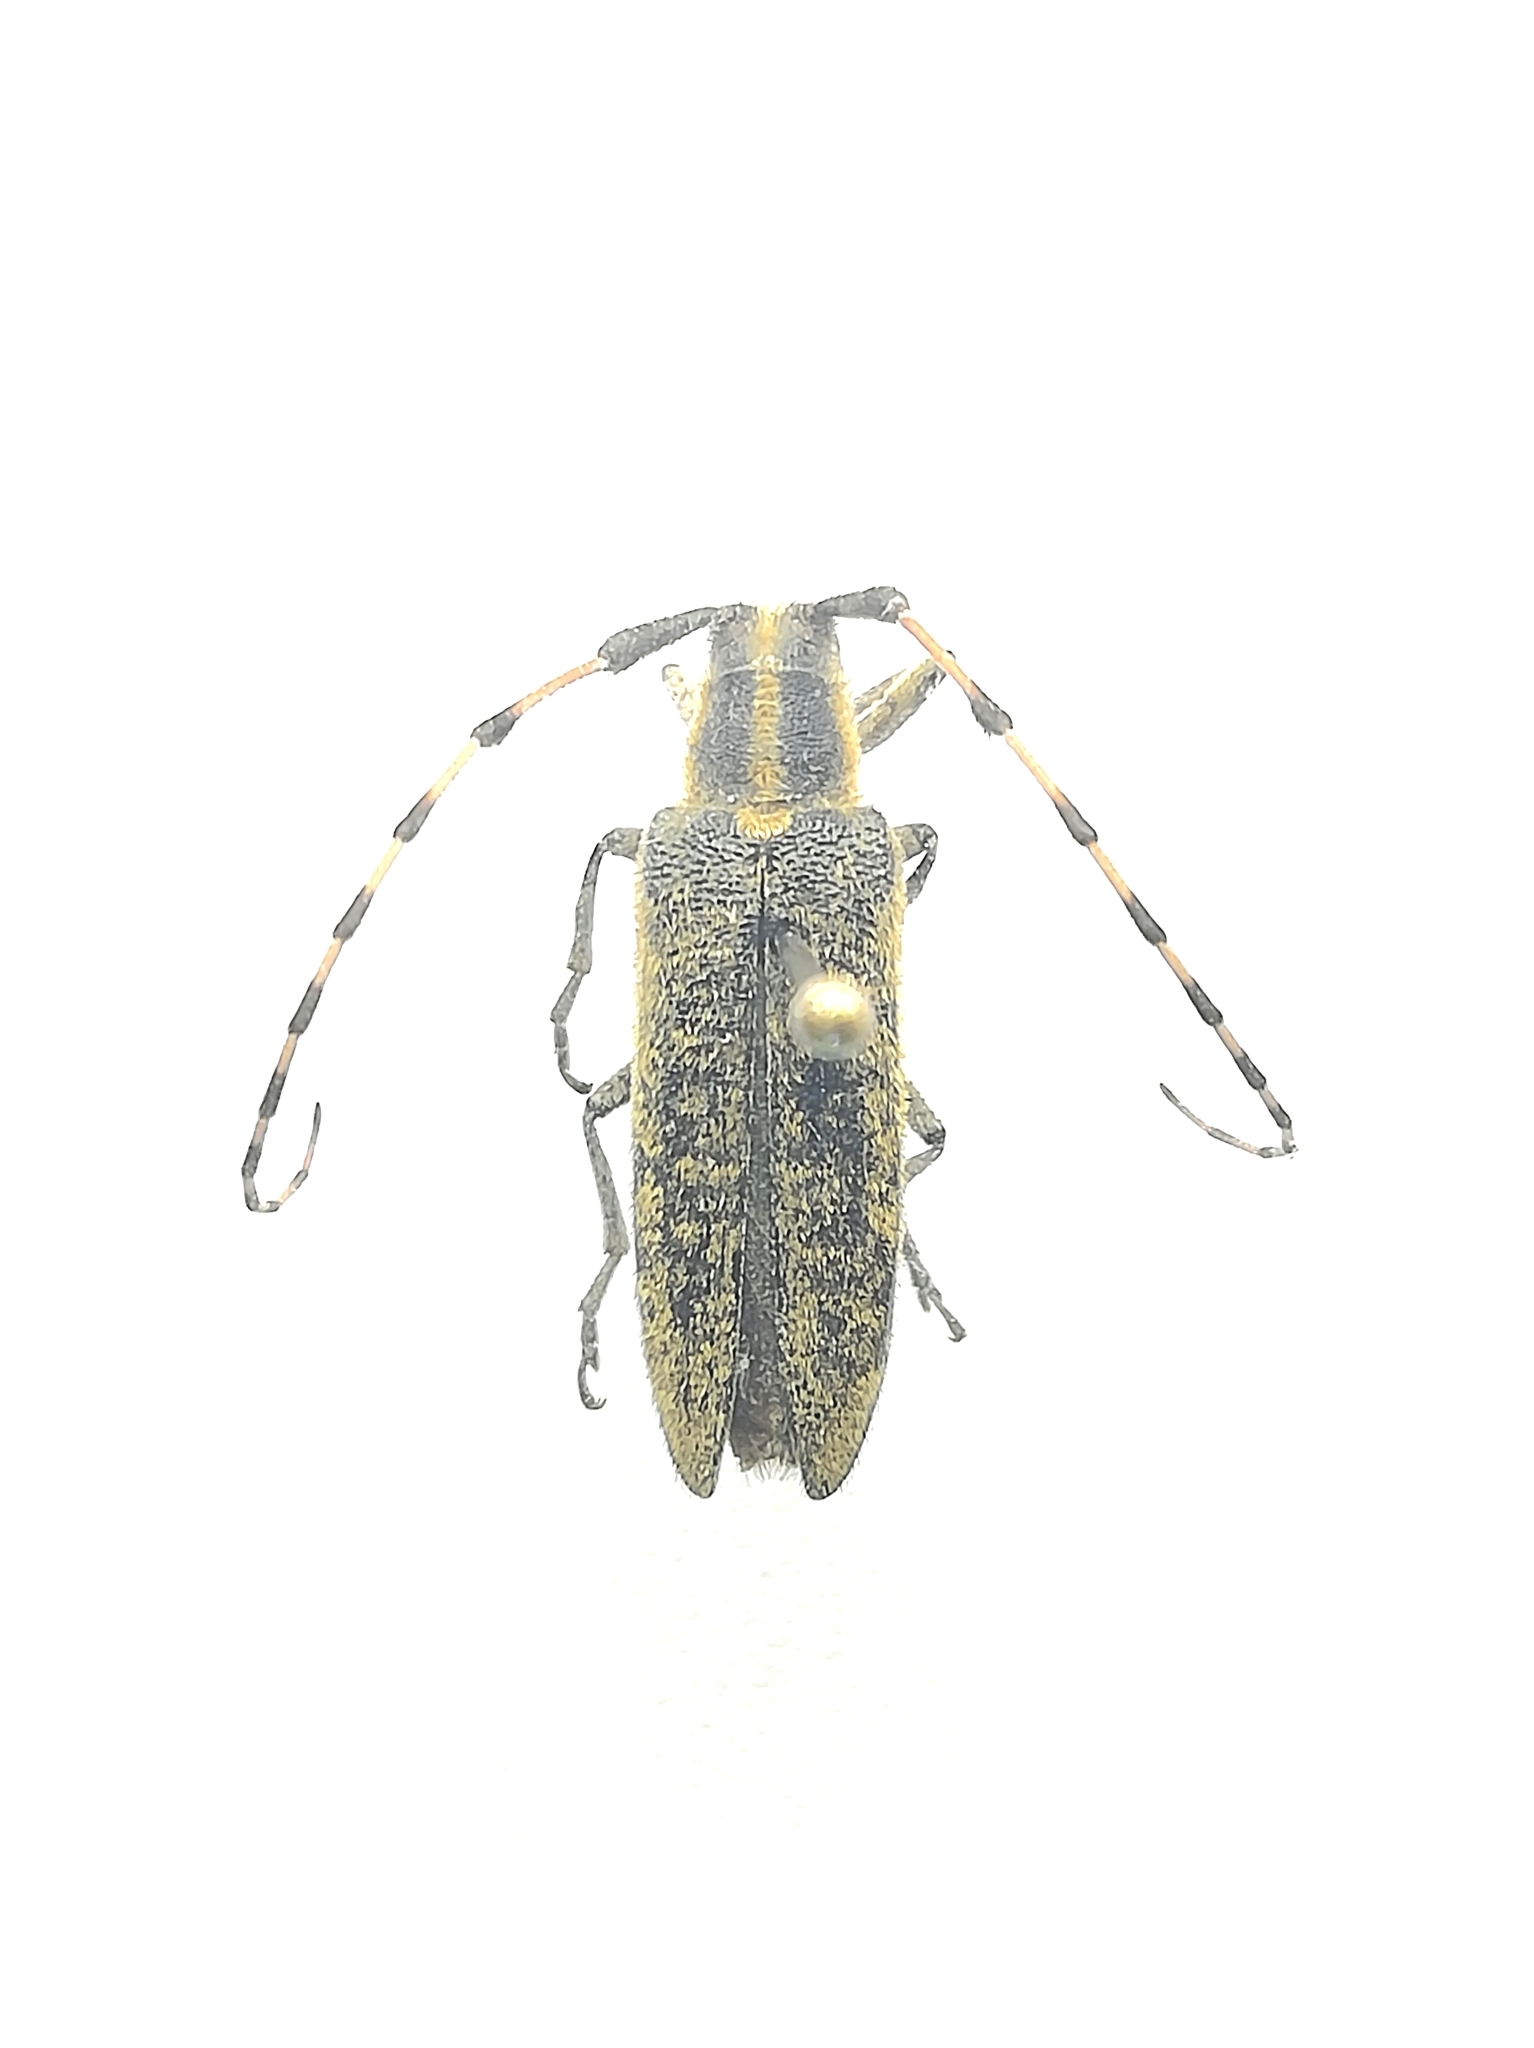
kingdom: Animalia
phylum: Arthropoda
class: Insecta
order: Coleoptera
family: Cerambycidae
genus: Agapanthia
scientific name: Agapanthia dahlii
